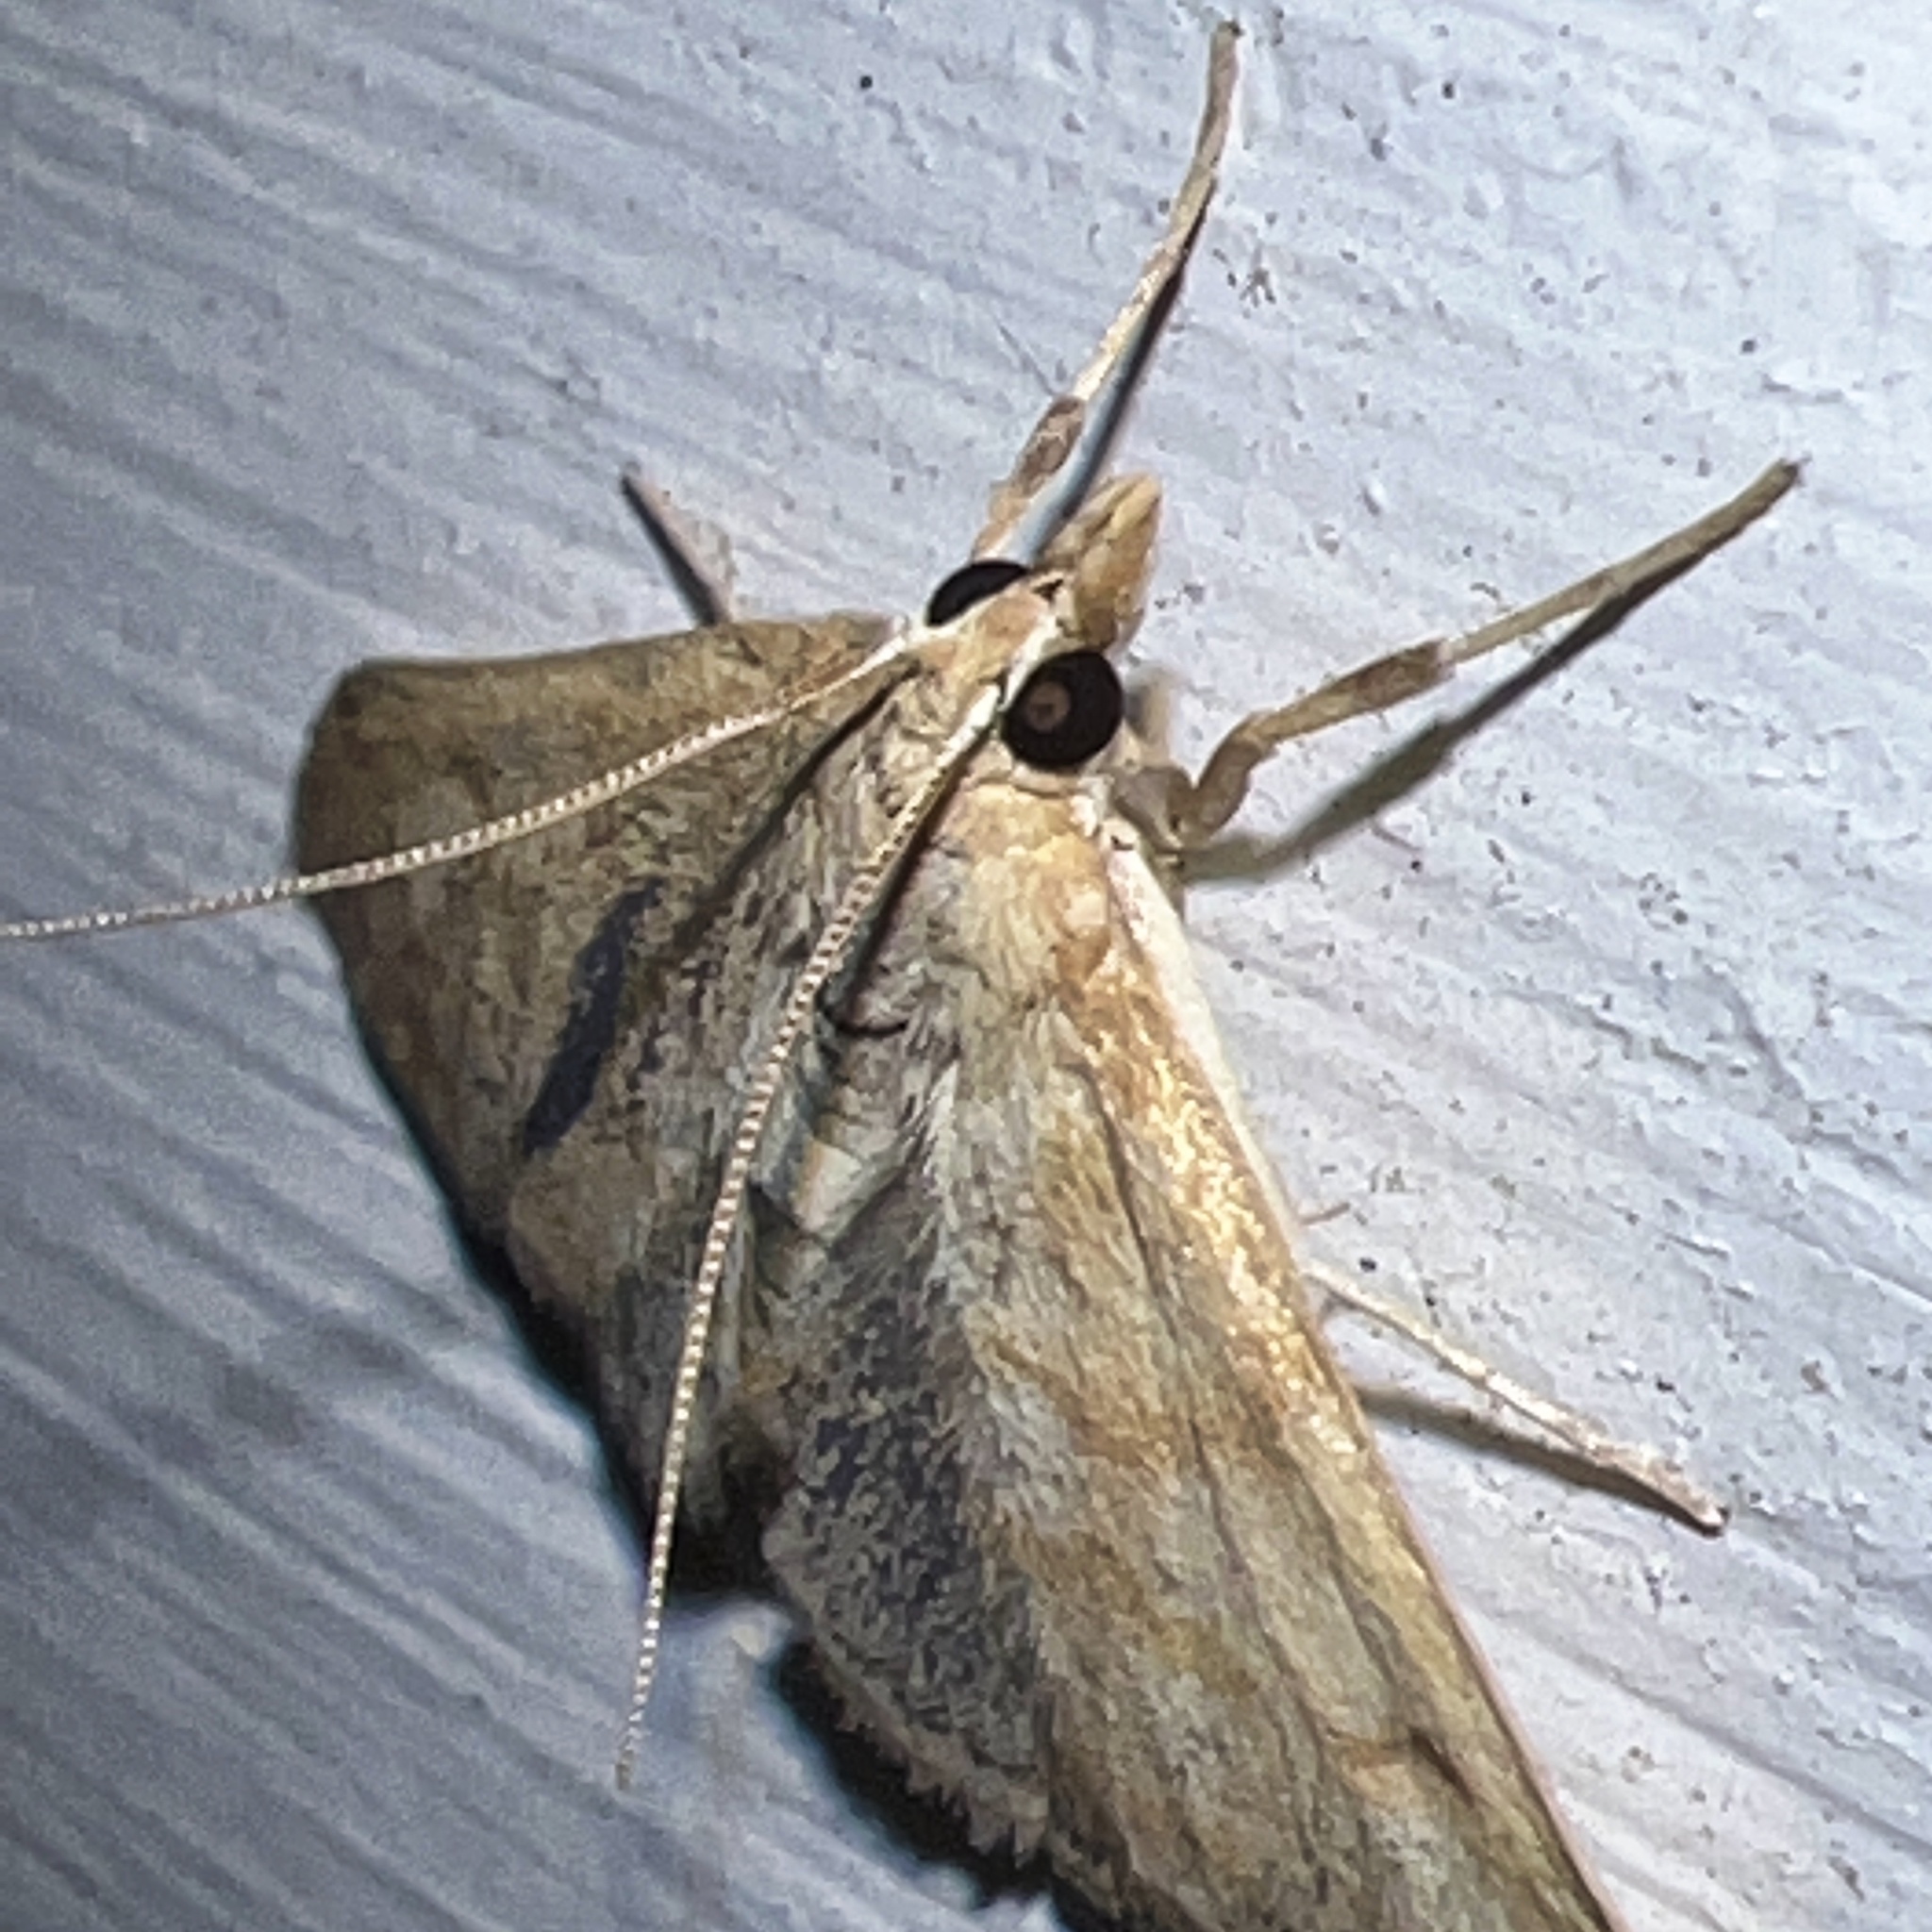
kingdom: Animalia
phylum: Arthropoda
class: Insecta
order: Lepidoptera
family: Crambidae
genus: Paracorsia
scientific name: Paracorsia repandalis
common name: Mullein moth
